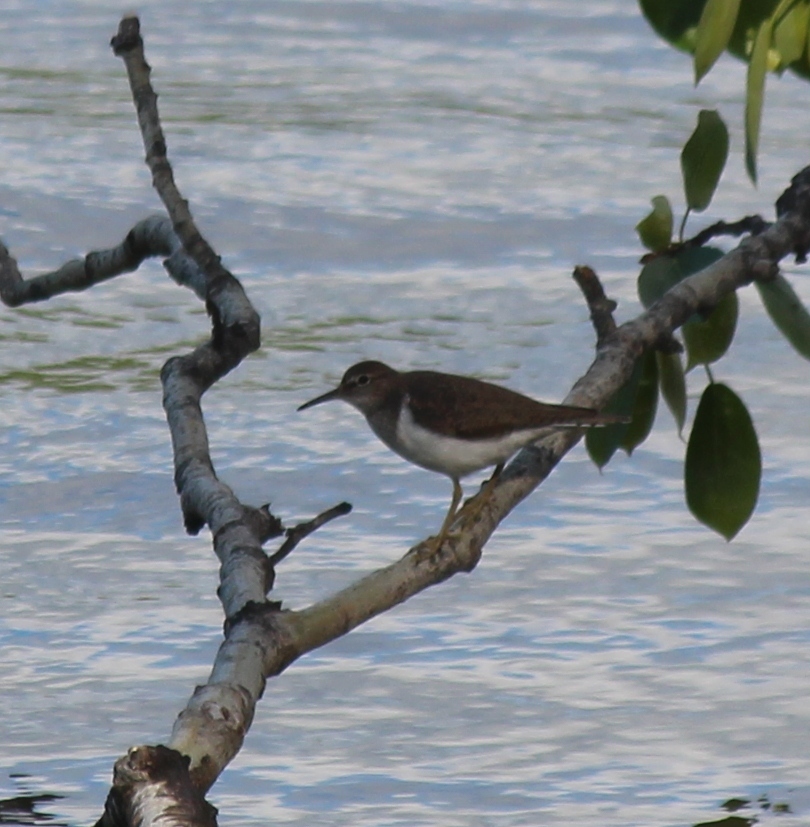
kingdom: Animalia
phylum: Chordata
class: Aves
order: Charadriiformes
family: Scolopacidae
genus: Actitis
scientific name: Actitis hypoleucos
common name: Common sandpiper
